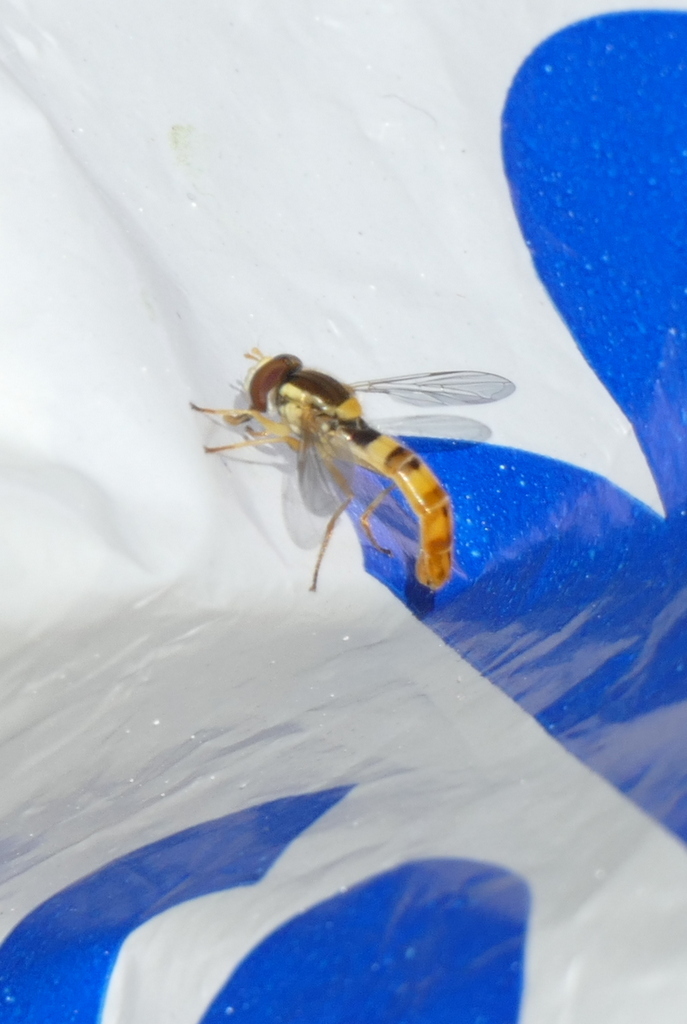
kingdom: Animalia
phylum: Arthropoda
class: Insecta
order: Diptera
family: Syrphidae
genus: Sphaerophoria
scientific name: Sphaerophoria scripta
